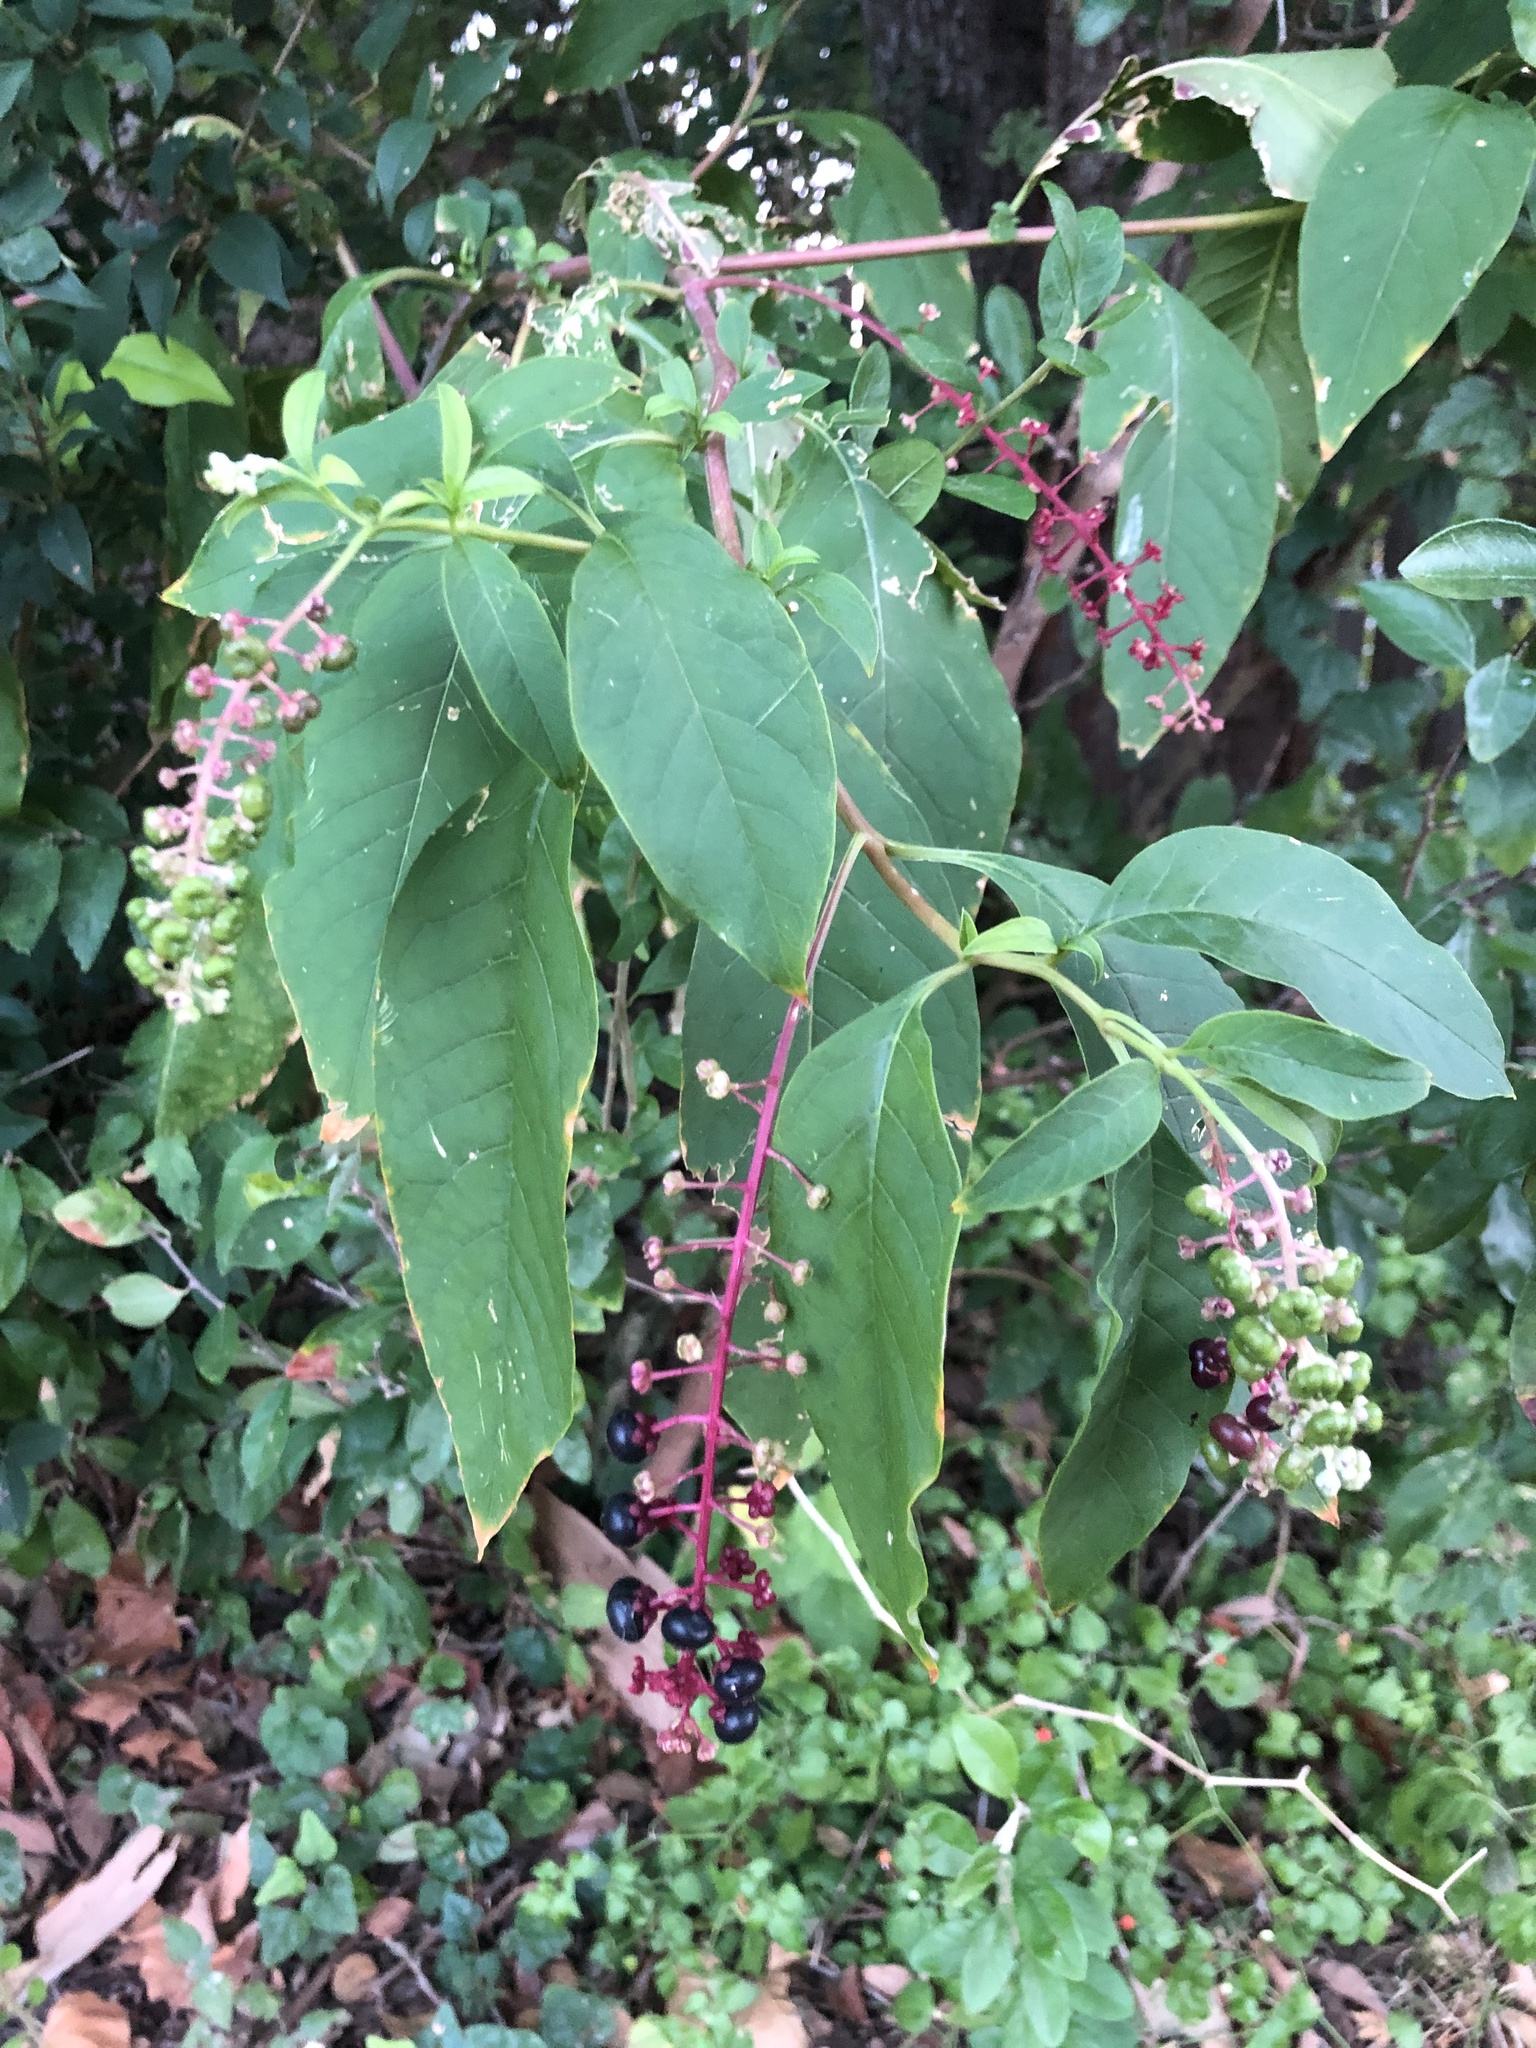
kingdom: Plantae
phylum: Tracheophyta
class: Magnoliopsida
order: Caryophyllales
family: Phytolaccaceae
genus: Phytolacca
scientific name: Phytolacca americana
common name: American pokeweed
